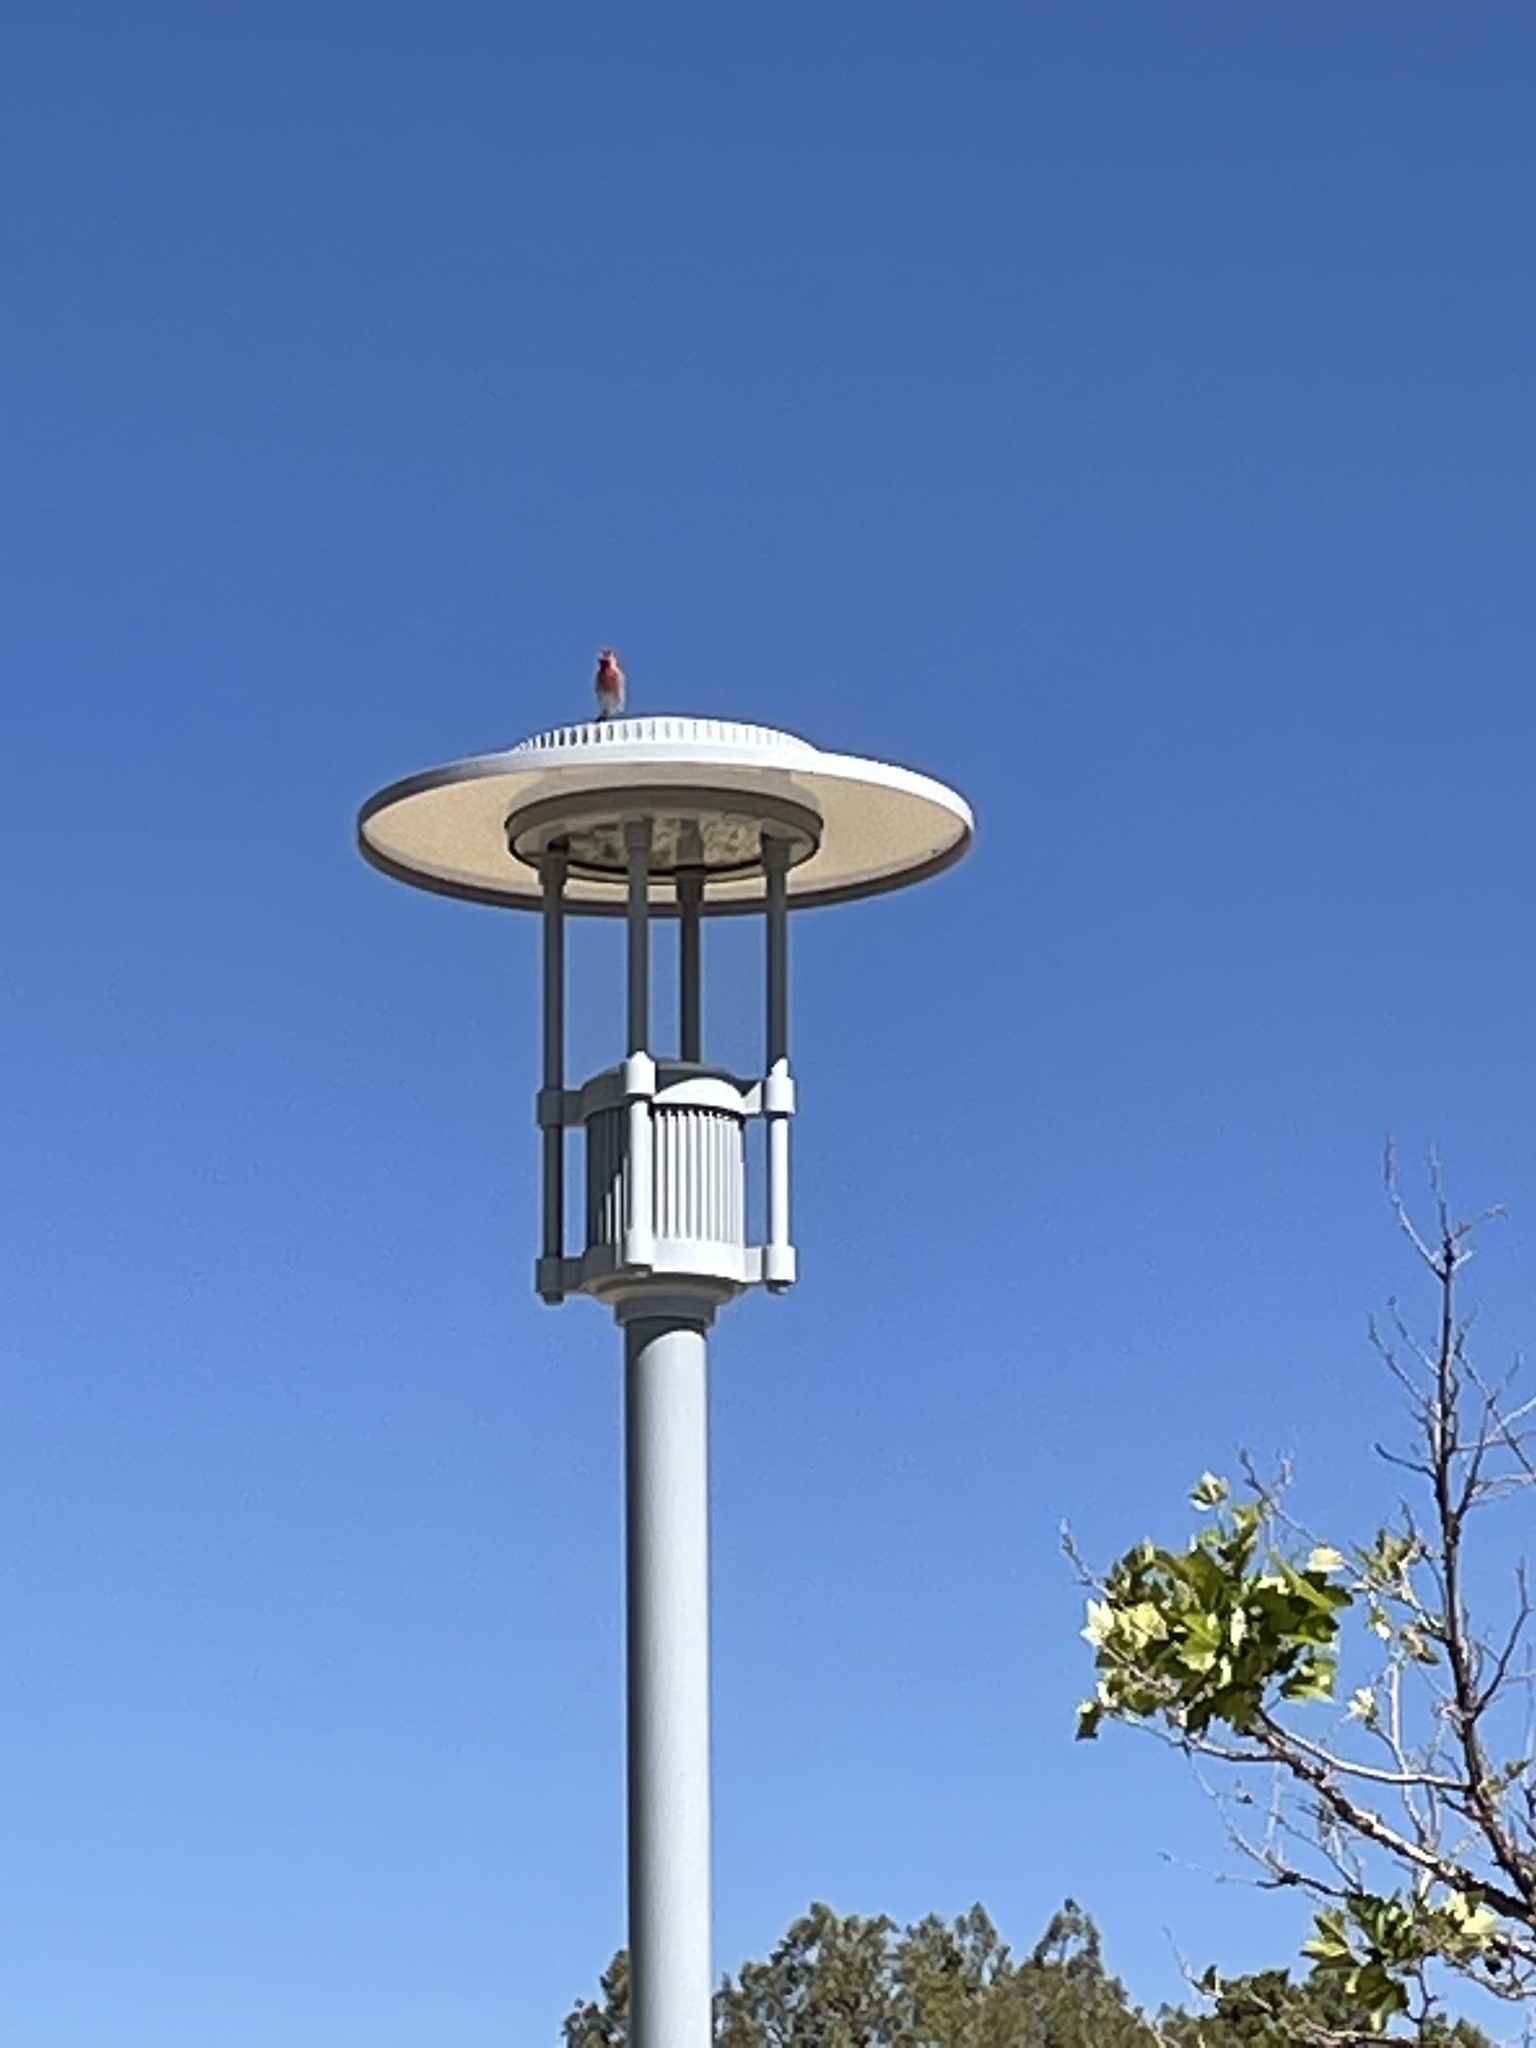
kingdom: Animalia
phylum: Chordata
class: Aves
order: Passeriformes
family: Fringillidae
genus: Haemorhous
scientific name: Haemorhous mexicanus
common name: House finch
